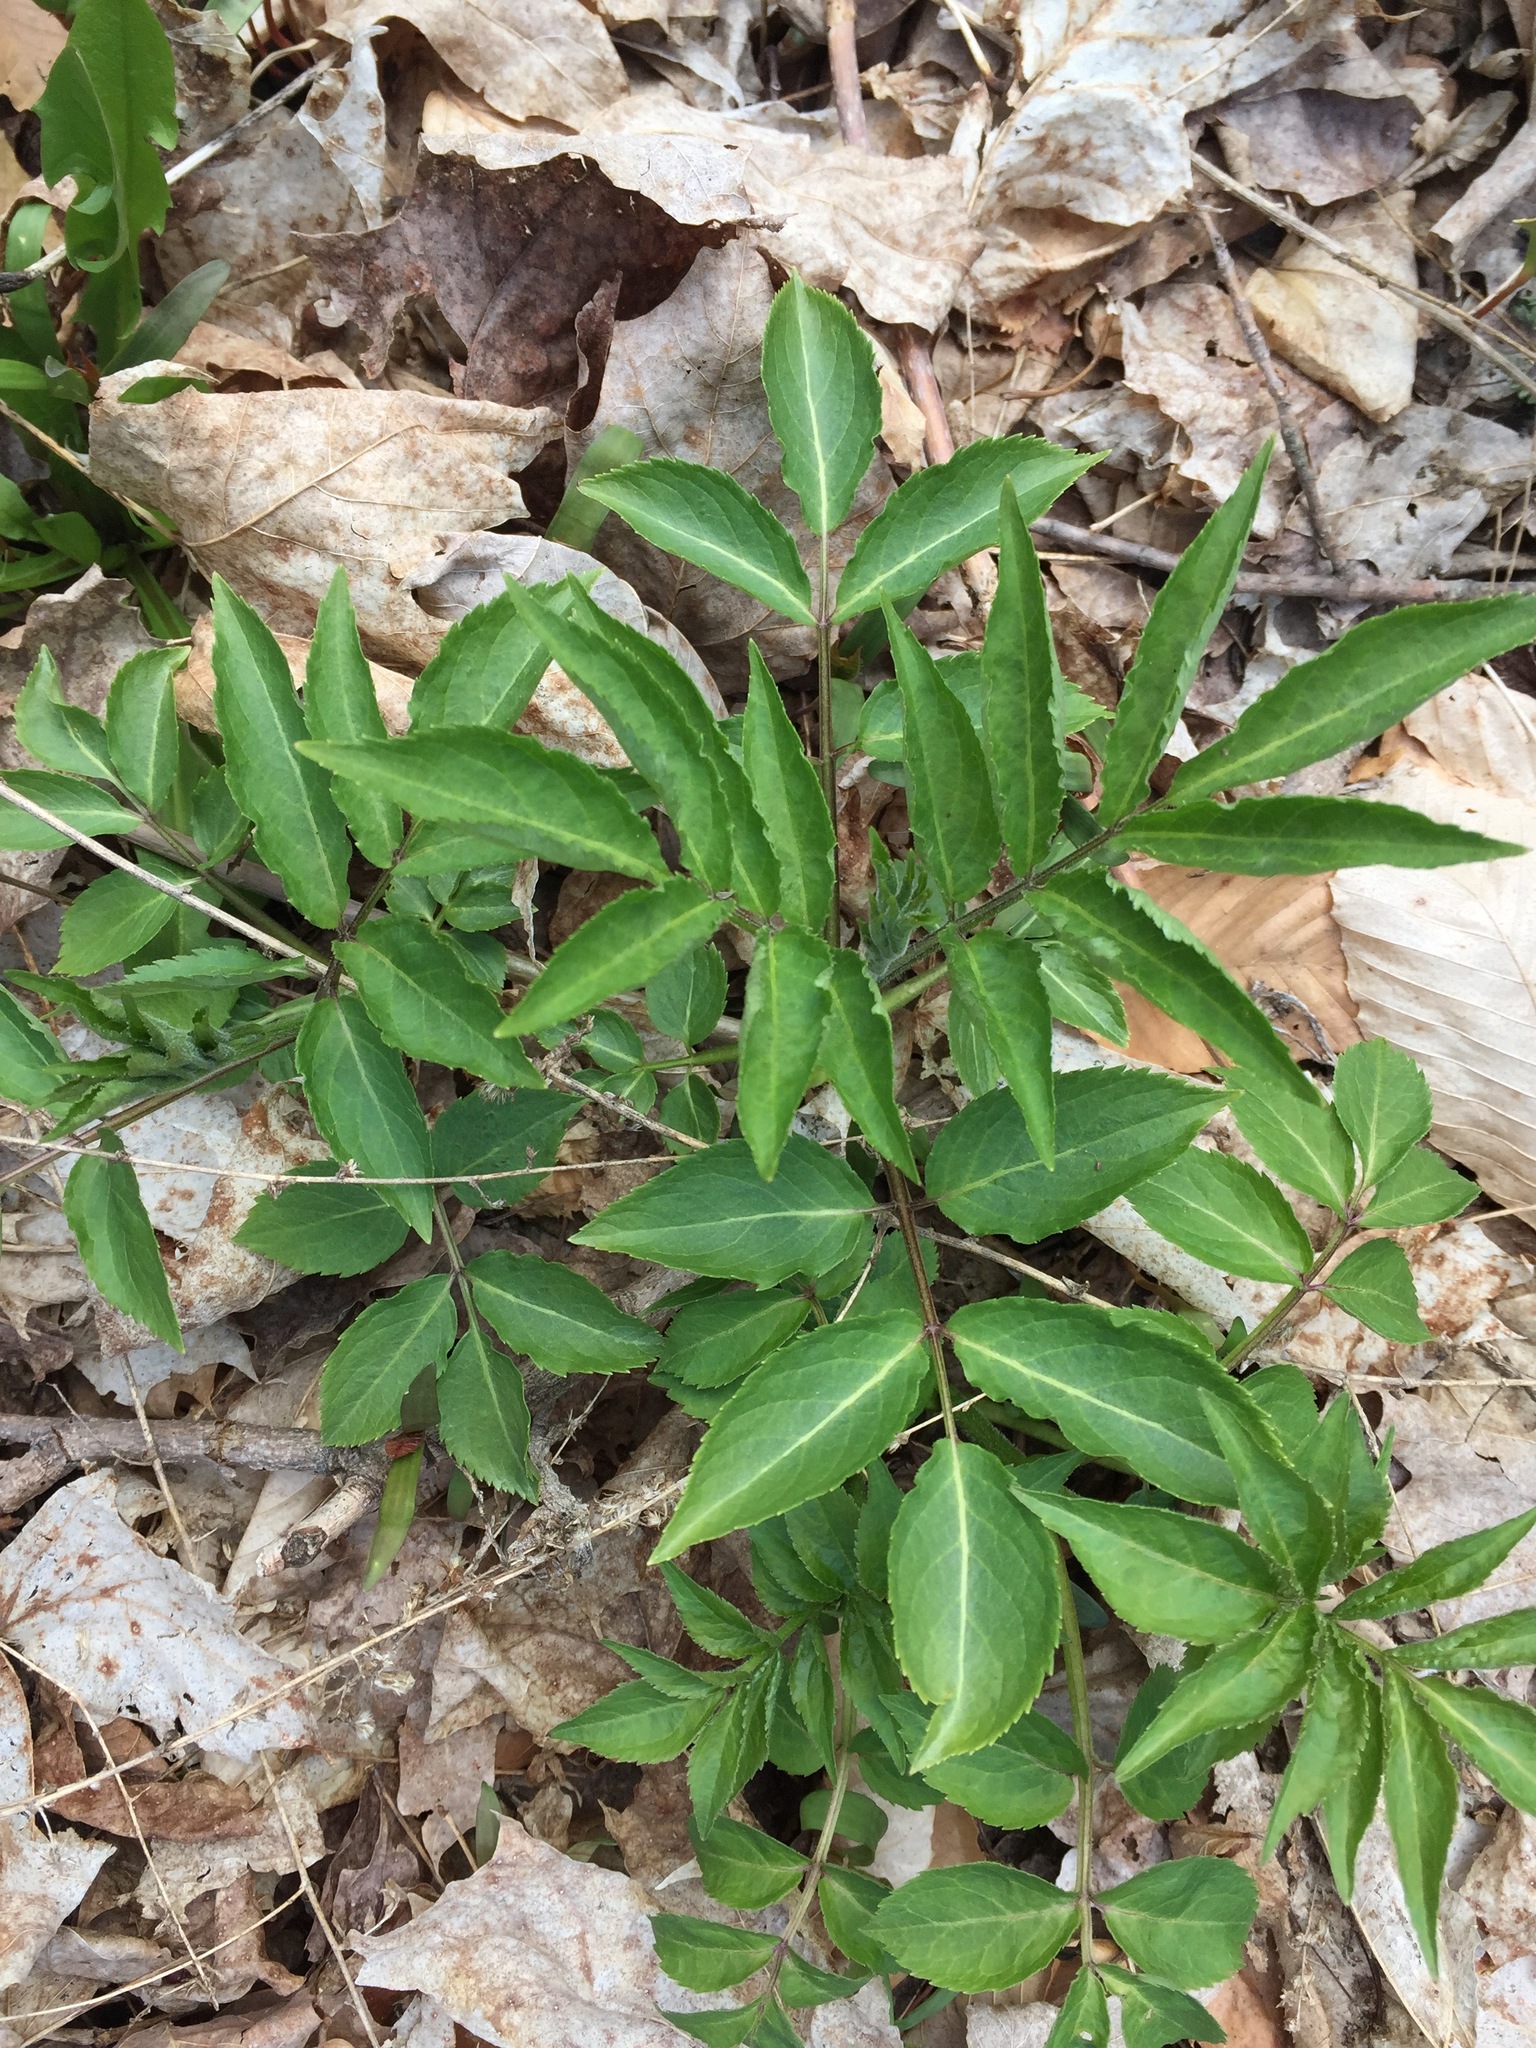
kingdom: Plantae
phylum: Tracheophyta
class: Magnoliopsida
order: Dipsacales
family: Viburnaceae
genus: Sambucus
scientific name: Sambucus racemosa
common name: Red-berried elder
